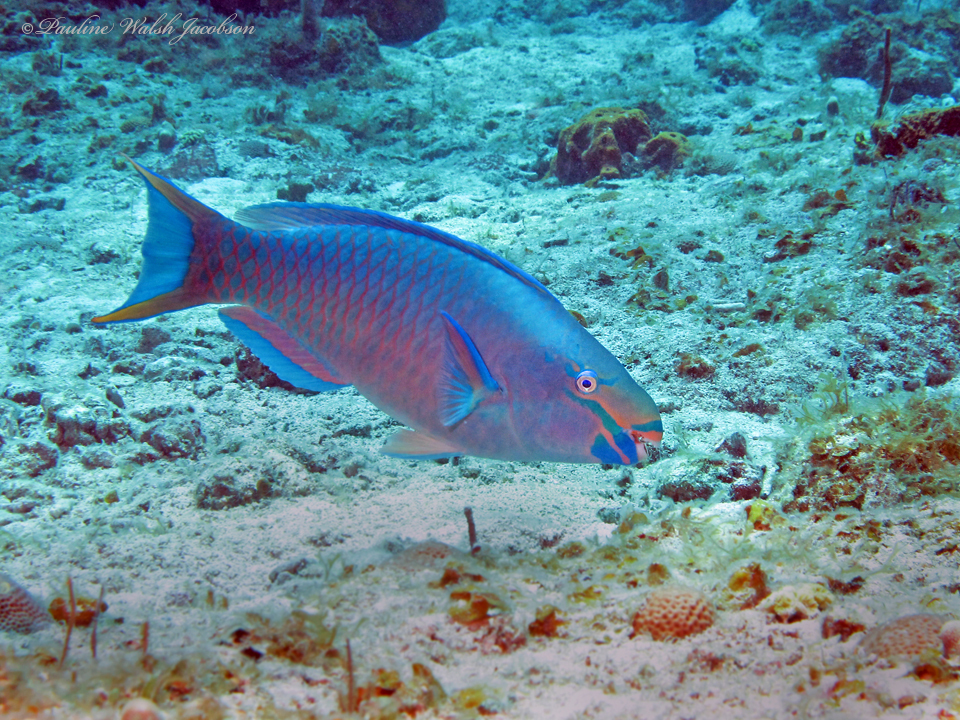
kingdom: Animalia
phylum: Chordata
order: Perciformes
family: Scaridae
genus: Scarus
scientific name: Scarus vetula
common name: Queen parrotfish
